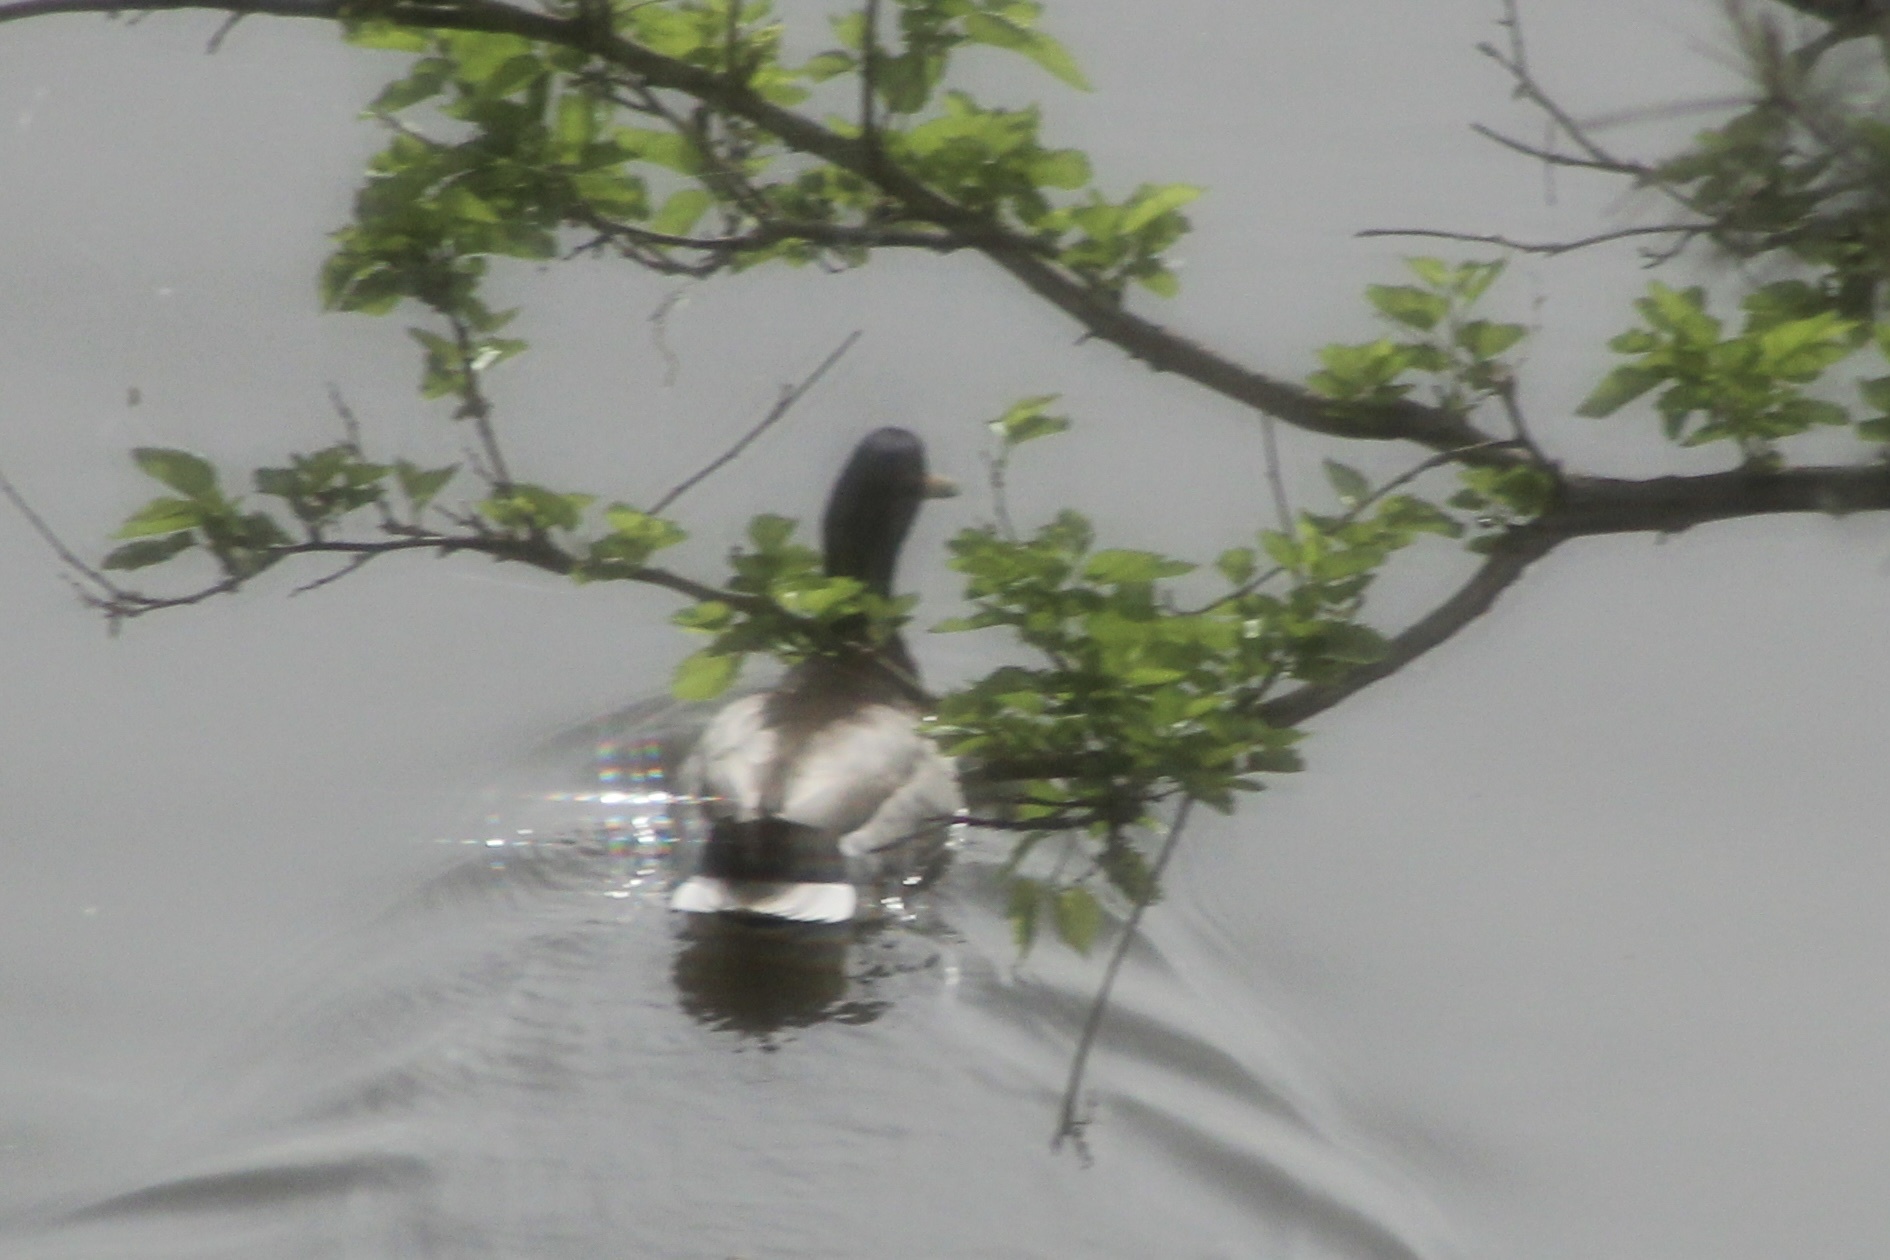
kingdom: Animalia
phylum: Chordata
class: Aves
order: Anseriformes
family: Anatidae
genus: Anas
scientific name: Anas platyrhynchos
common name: Mallard
